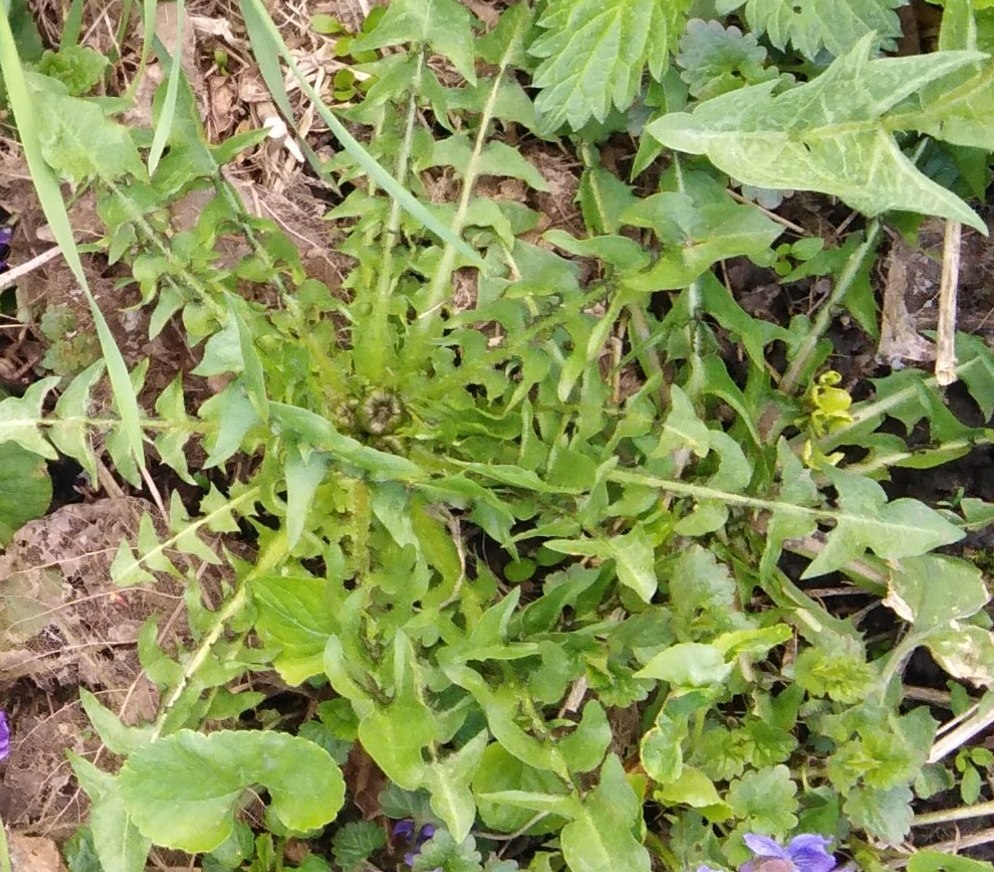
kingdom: Plantae
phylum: Tracheophyta
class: Magnoliopsida
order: Asterales
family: Asteraceae
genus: Taraxacum
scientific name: Taraxacum officinale
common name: Common dandelion
